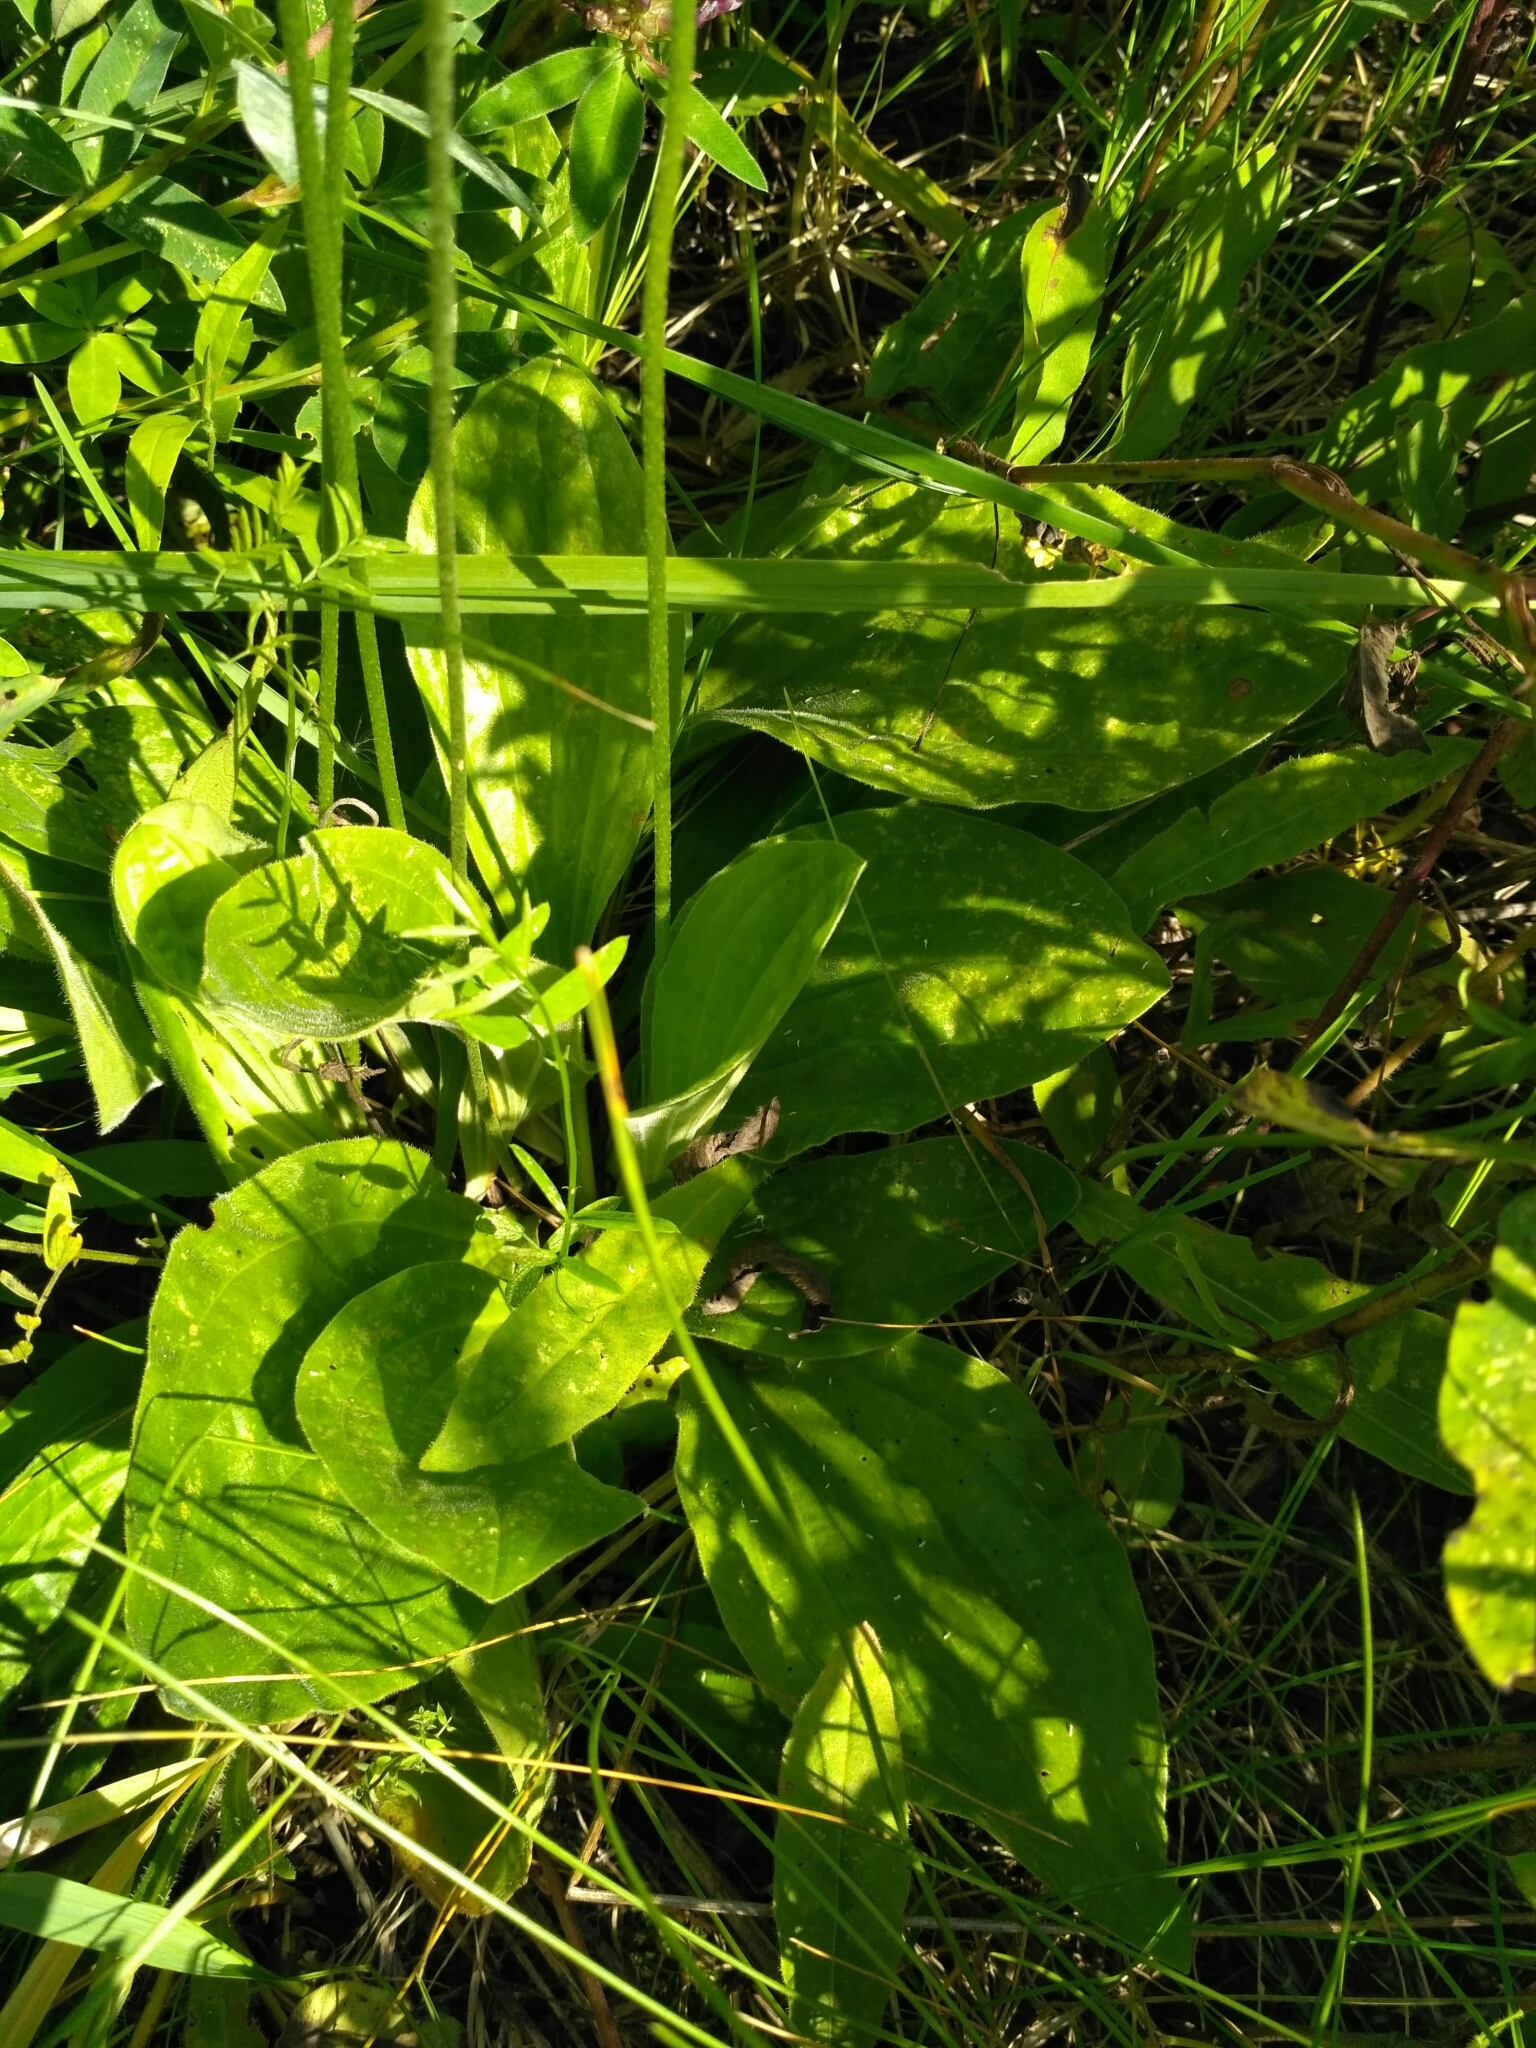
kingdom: Plantae
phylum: Tracheophyta
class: Magnoliopsida
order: Lamiales
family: Plantaginaceae
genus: Plantago
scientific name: Plantago media
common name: Hoary plantain
